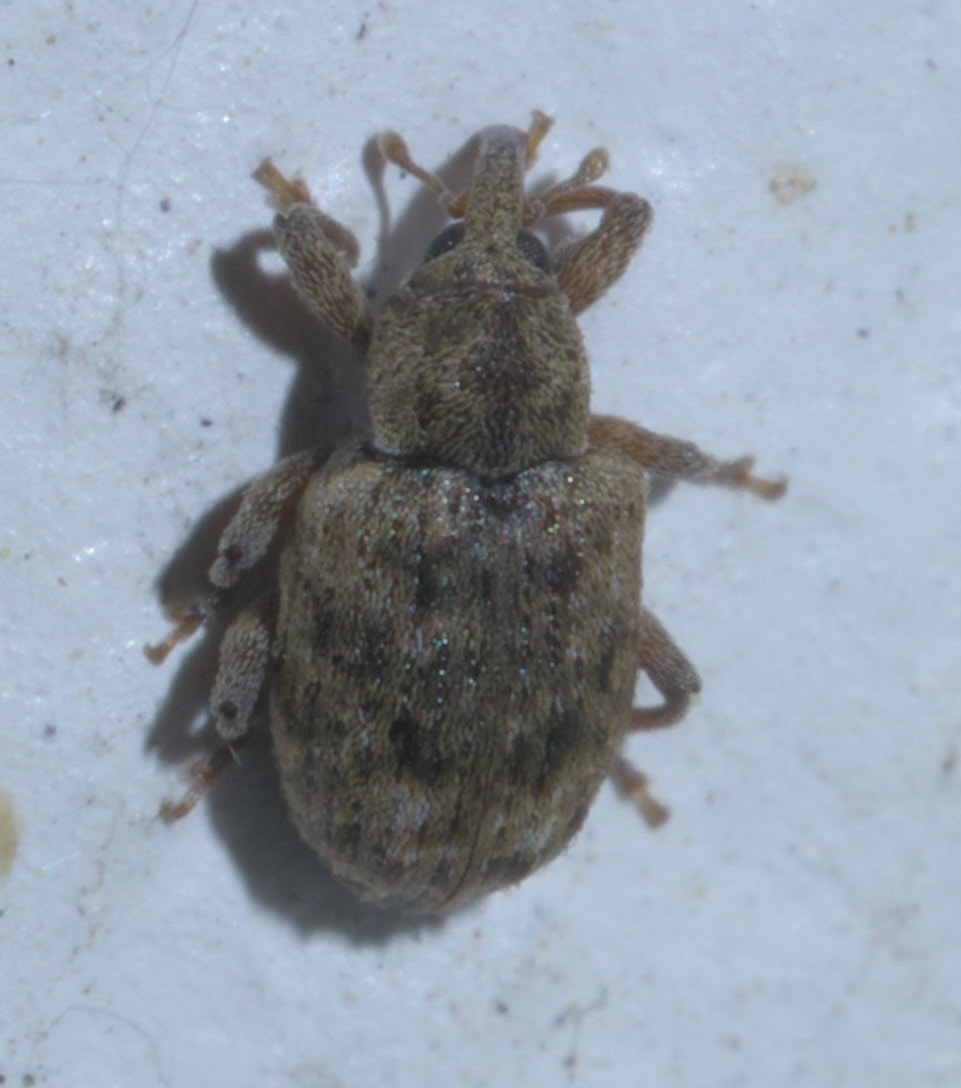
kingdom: Animalia
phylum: Arthropoda
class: Insecta
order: Coleoptera
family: Curculionidae
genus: Conotrachelus
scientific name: Conotrachelus recessus
